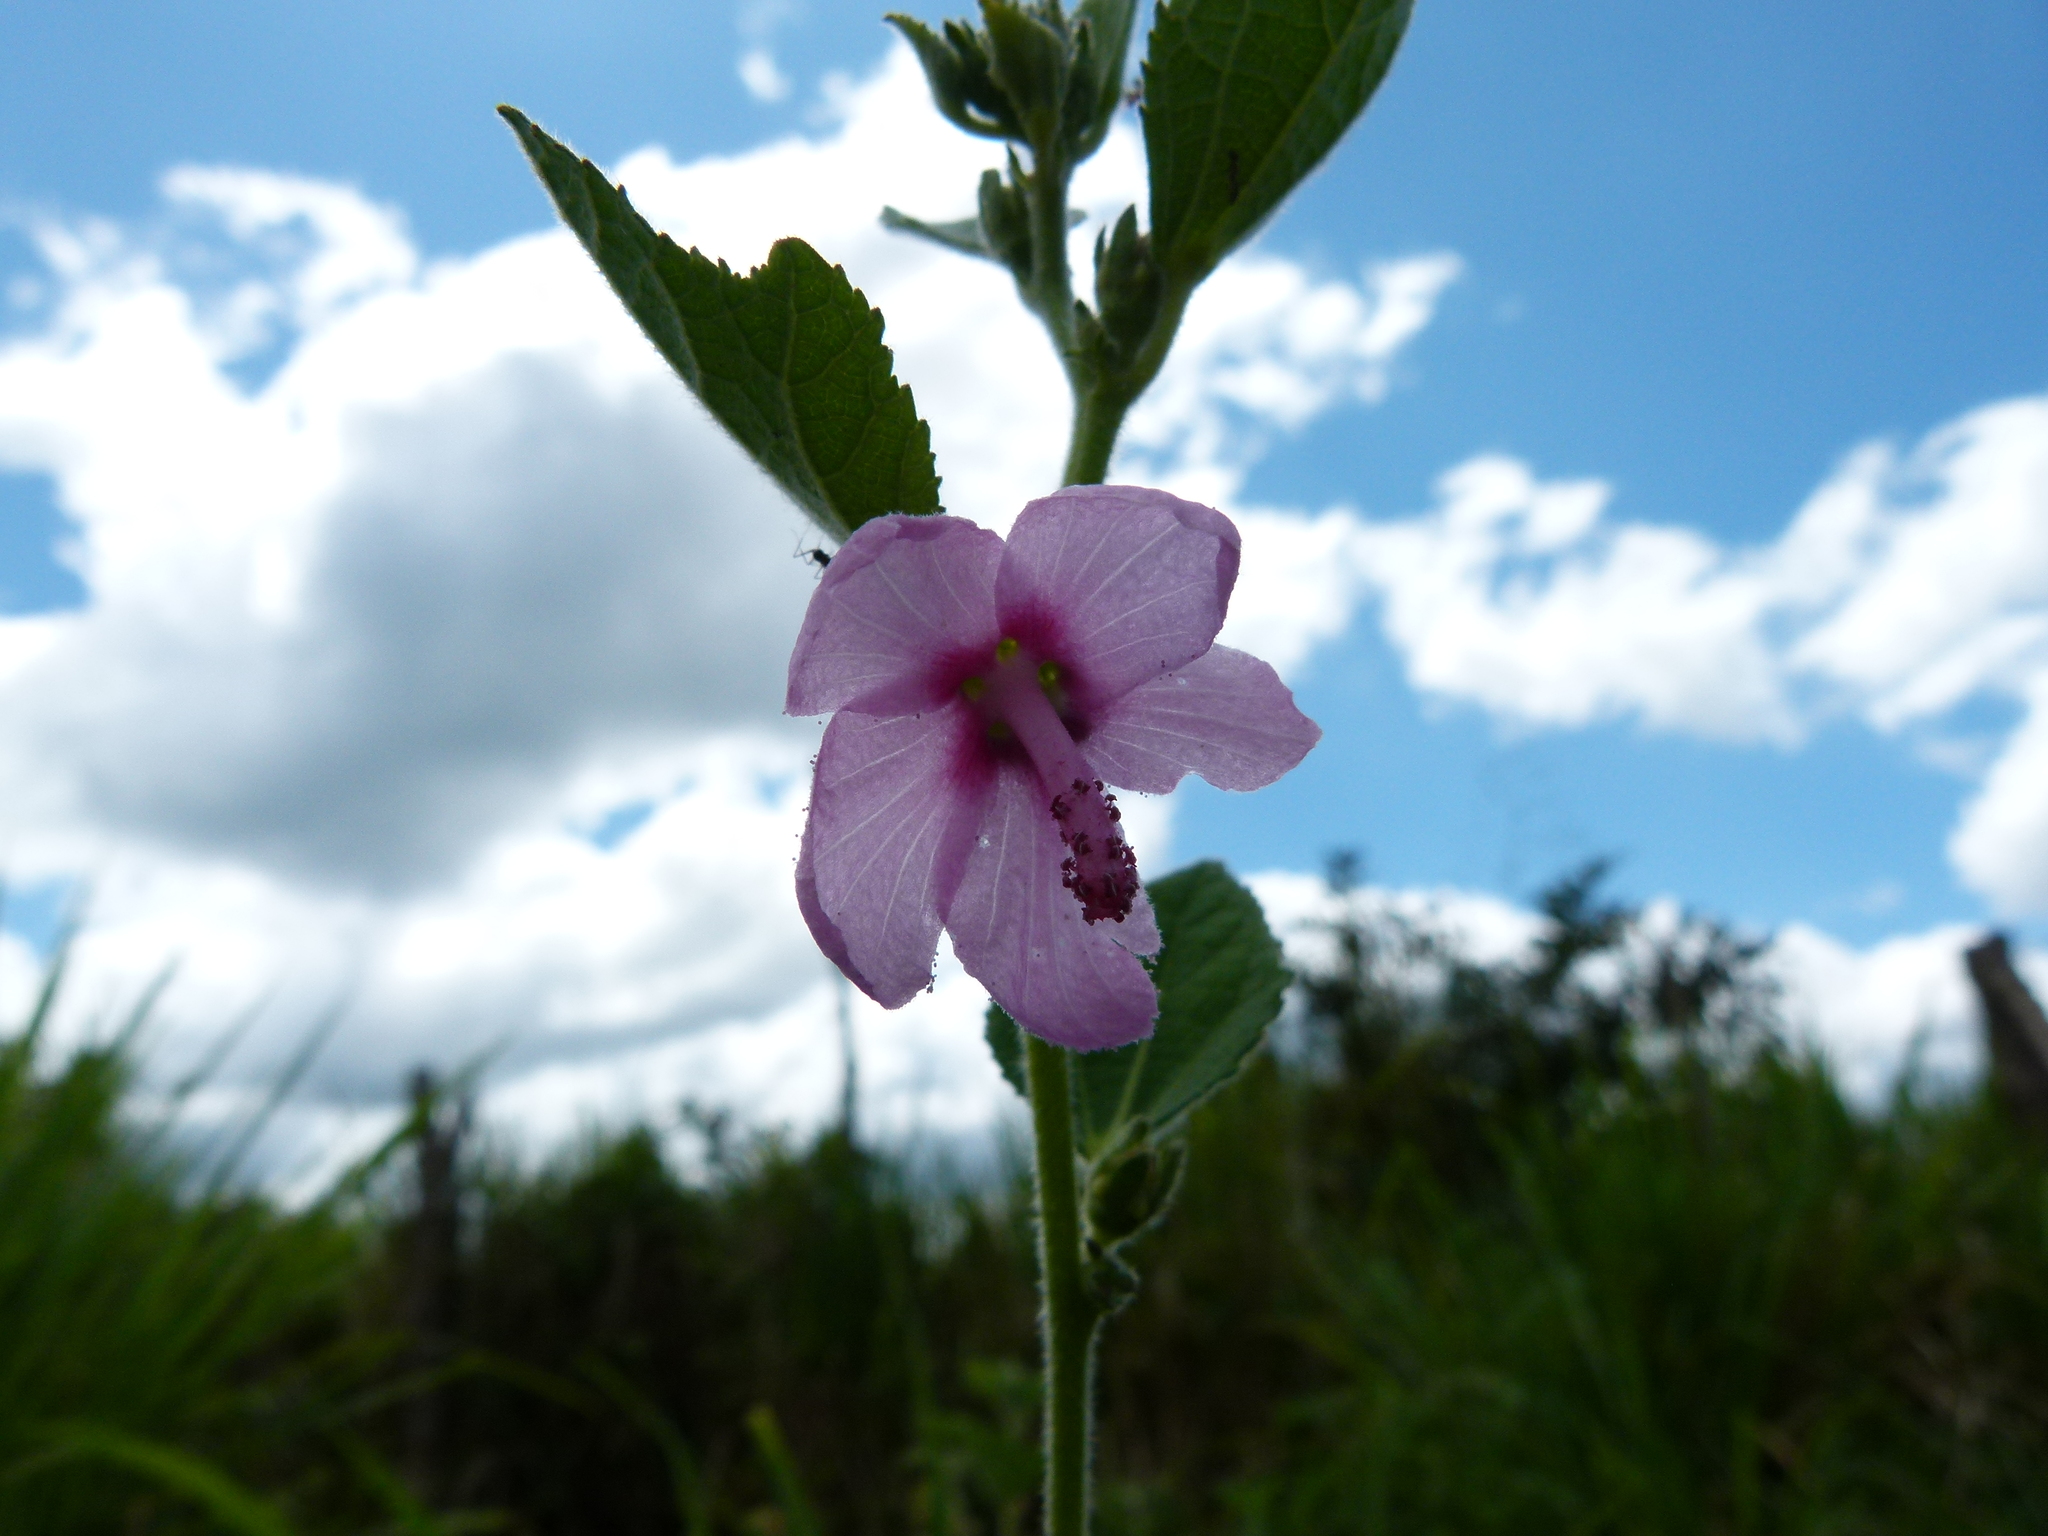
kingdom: Plantae
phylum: Tracheophyta
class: Magnoliopsida
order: Malvales
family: Malvaceae
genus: Urena
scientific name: Urena lobata
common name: Caesarweed
